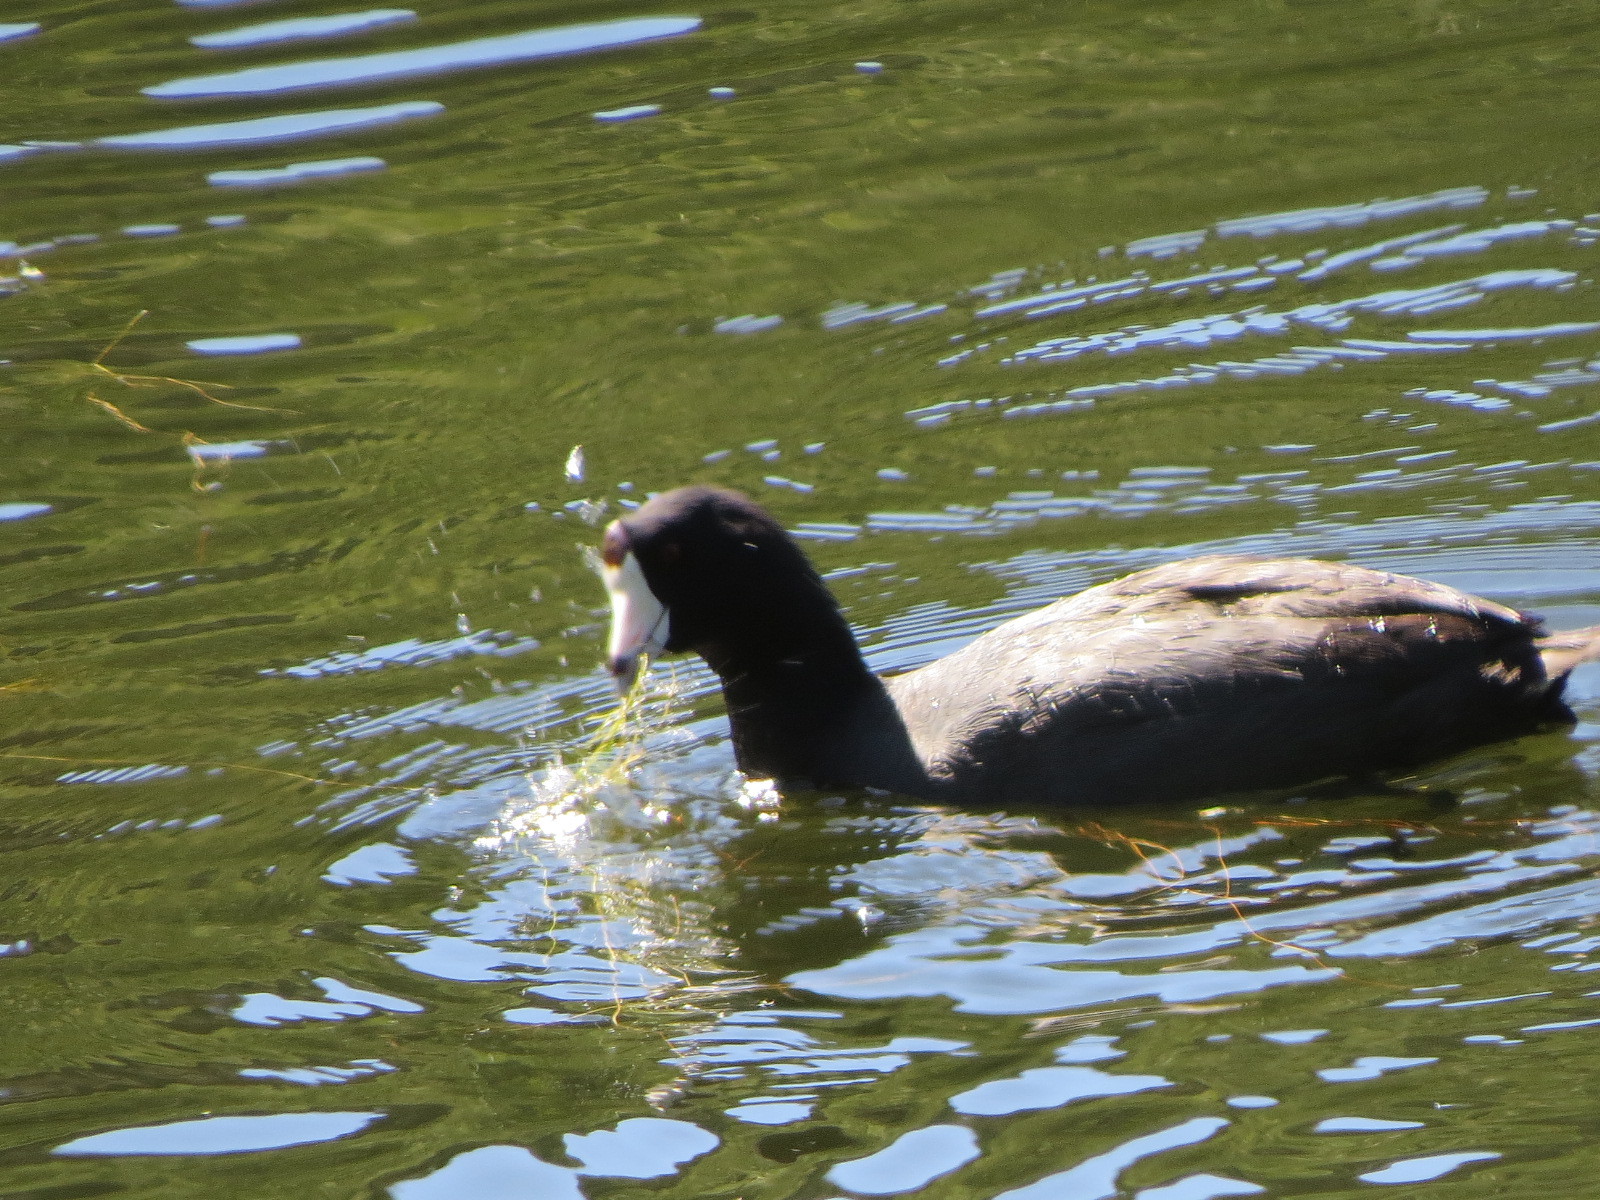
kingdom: Animalia
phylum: Chordata
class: Aves
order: Gruiformes
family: Rallidae
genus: Fulica
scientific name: Fulica americana
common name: American coot
